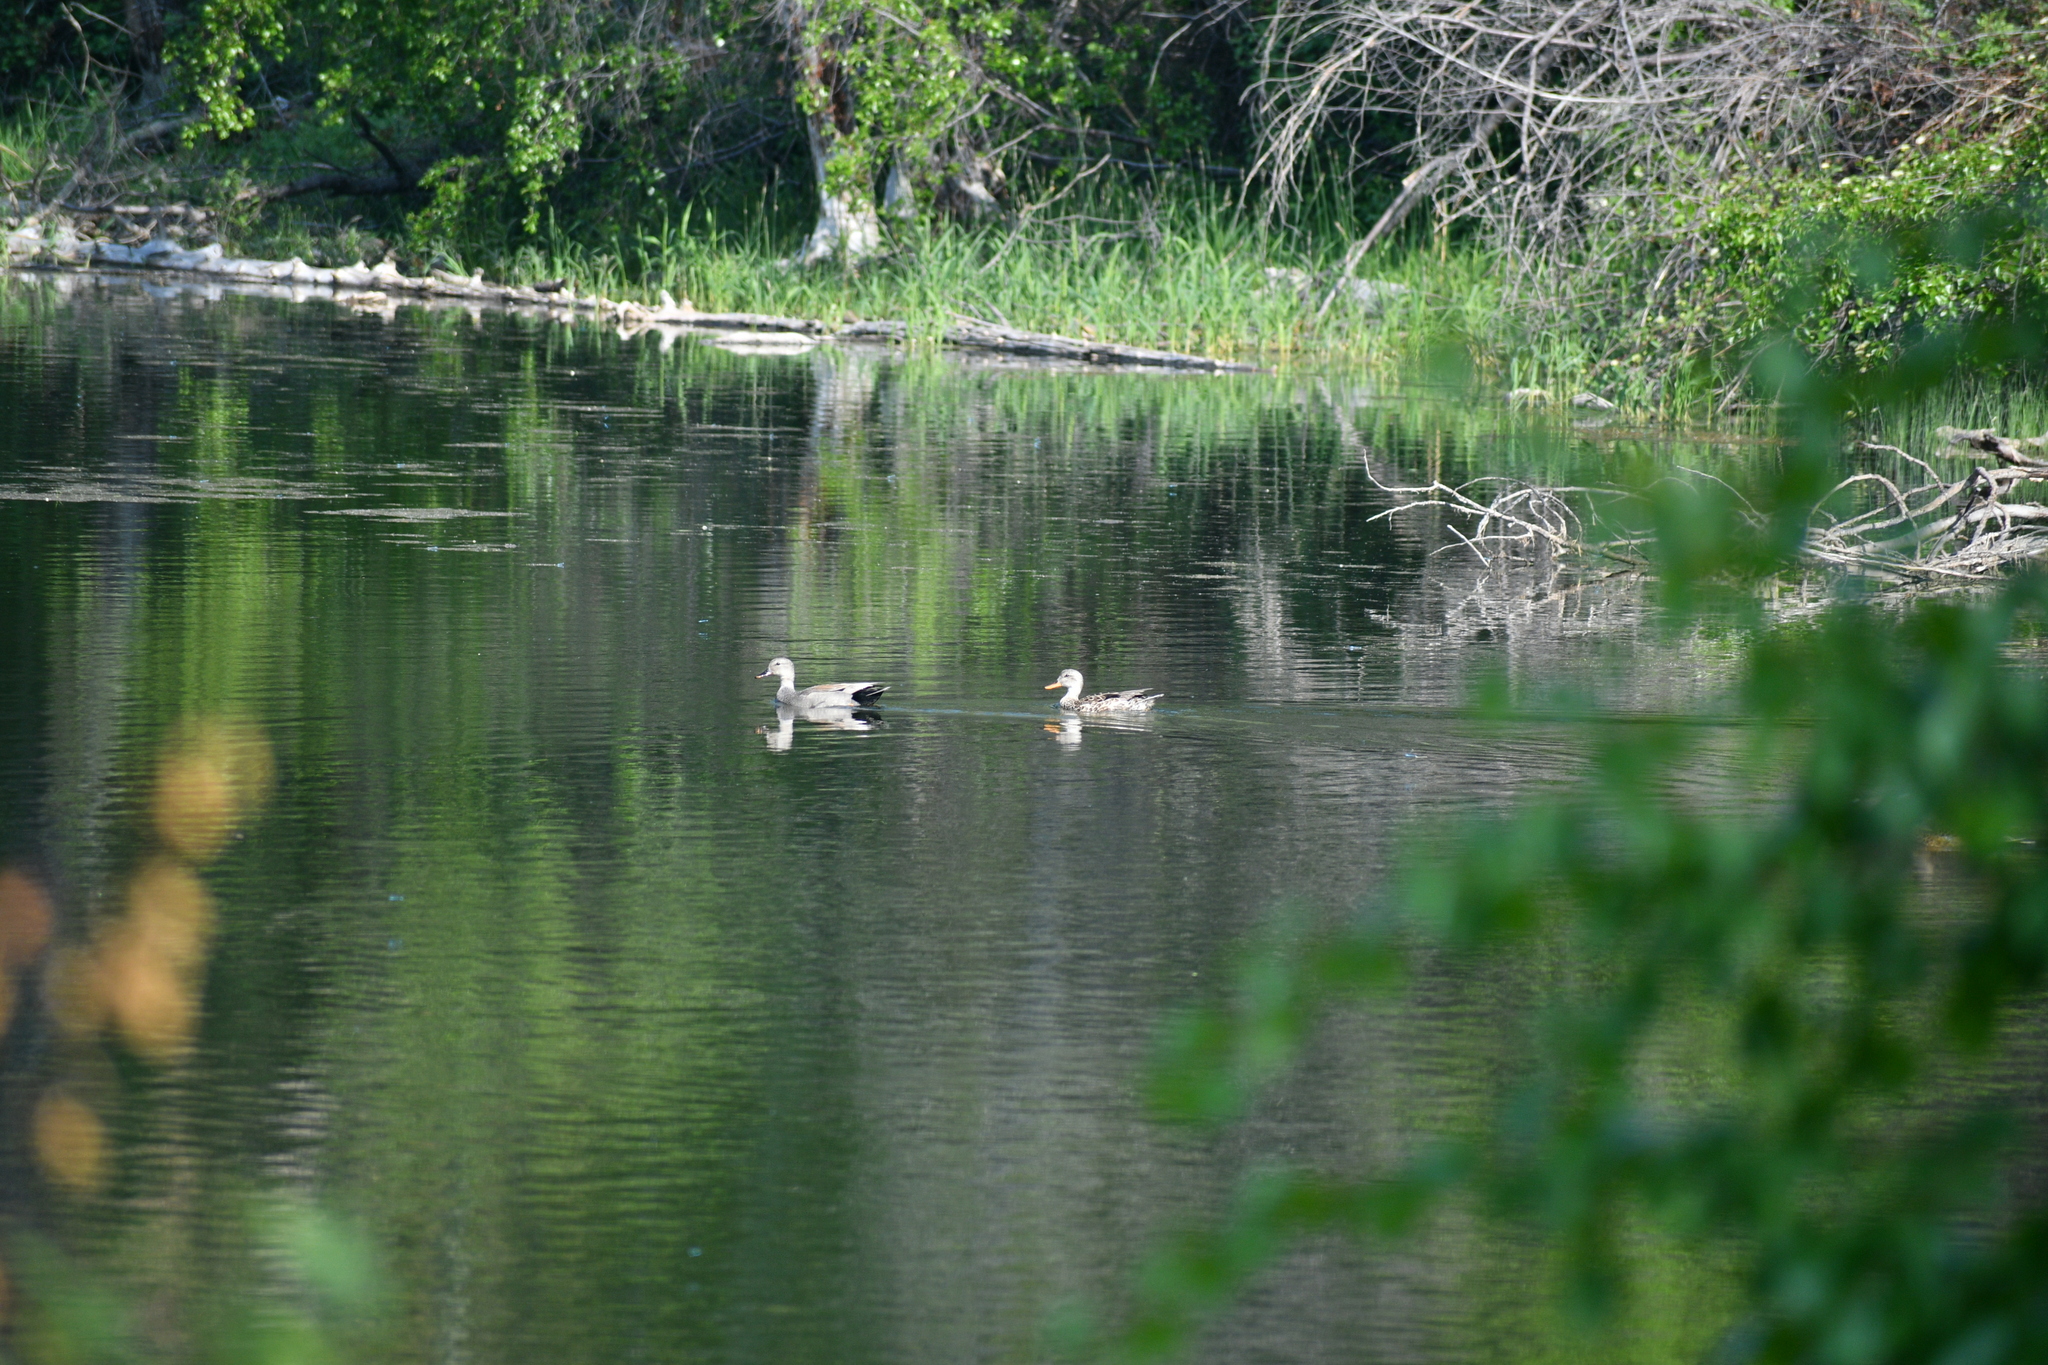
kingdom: Animalia
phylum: Chordata
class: Aves
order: Anseriformes
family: Anatidae
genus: Mareca
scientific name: Mareca strepera
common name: Gadwall
